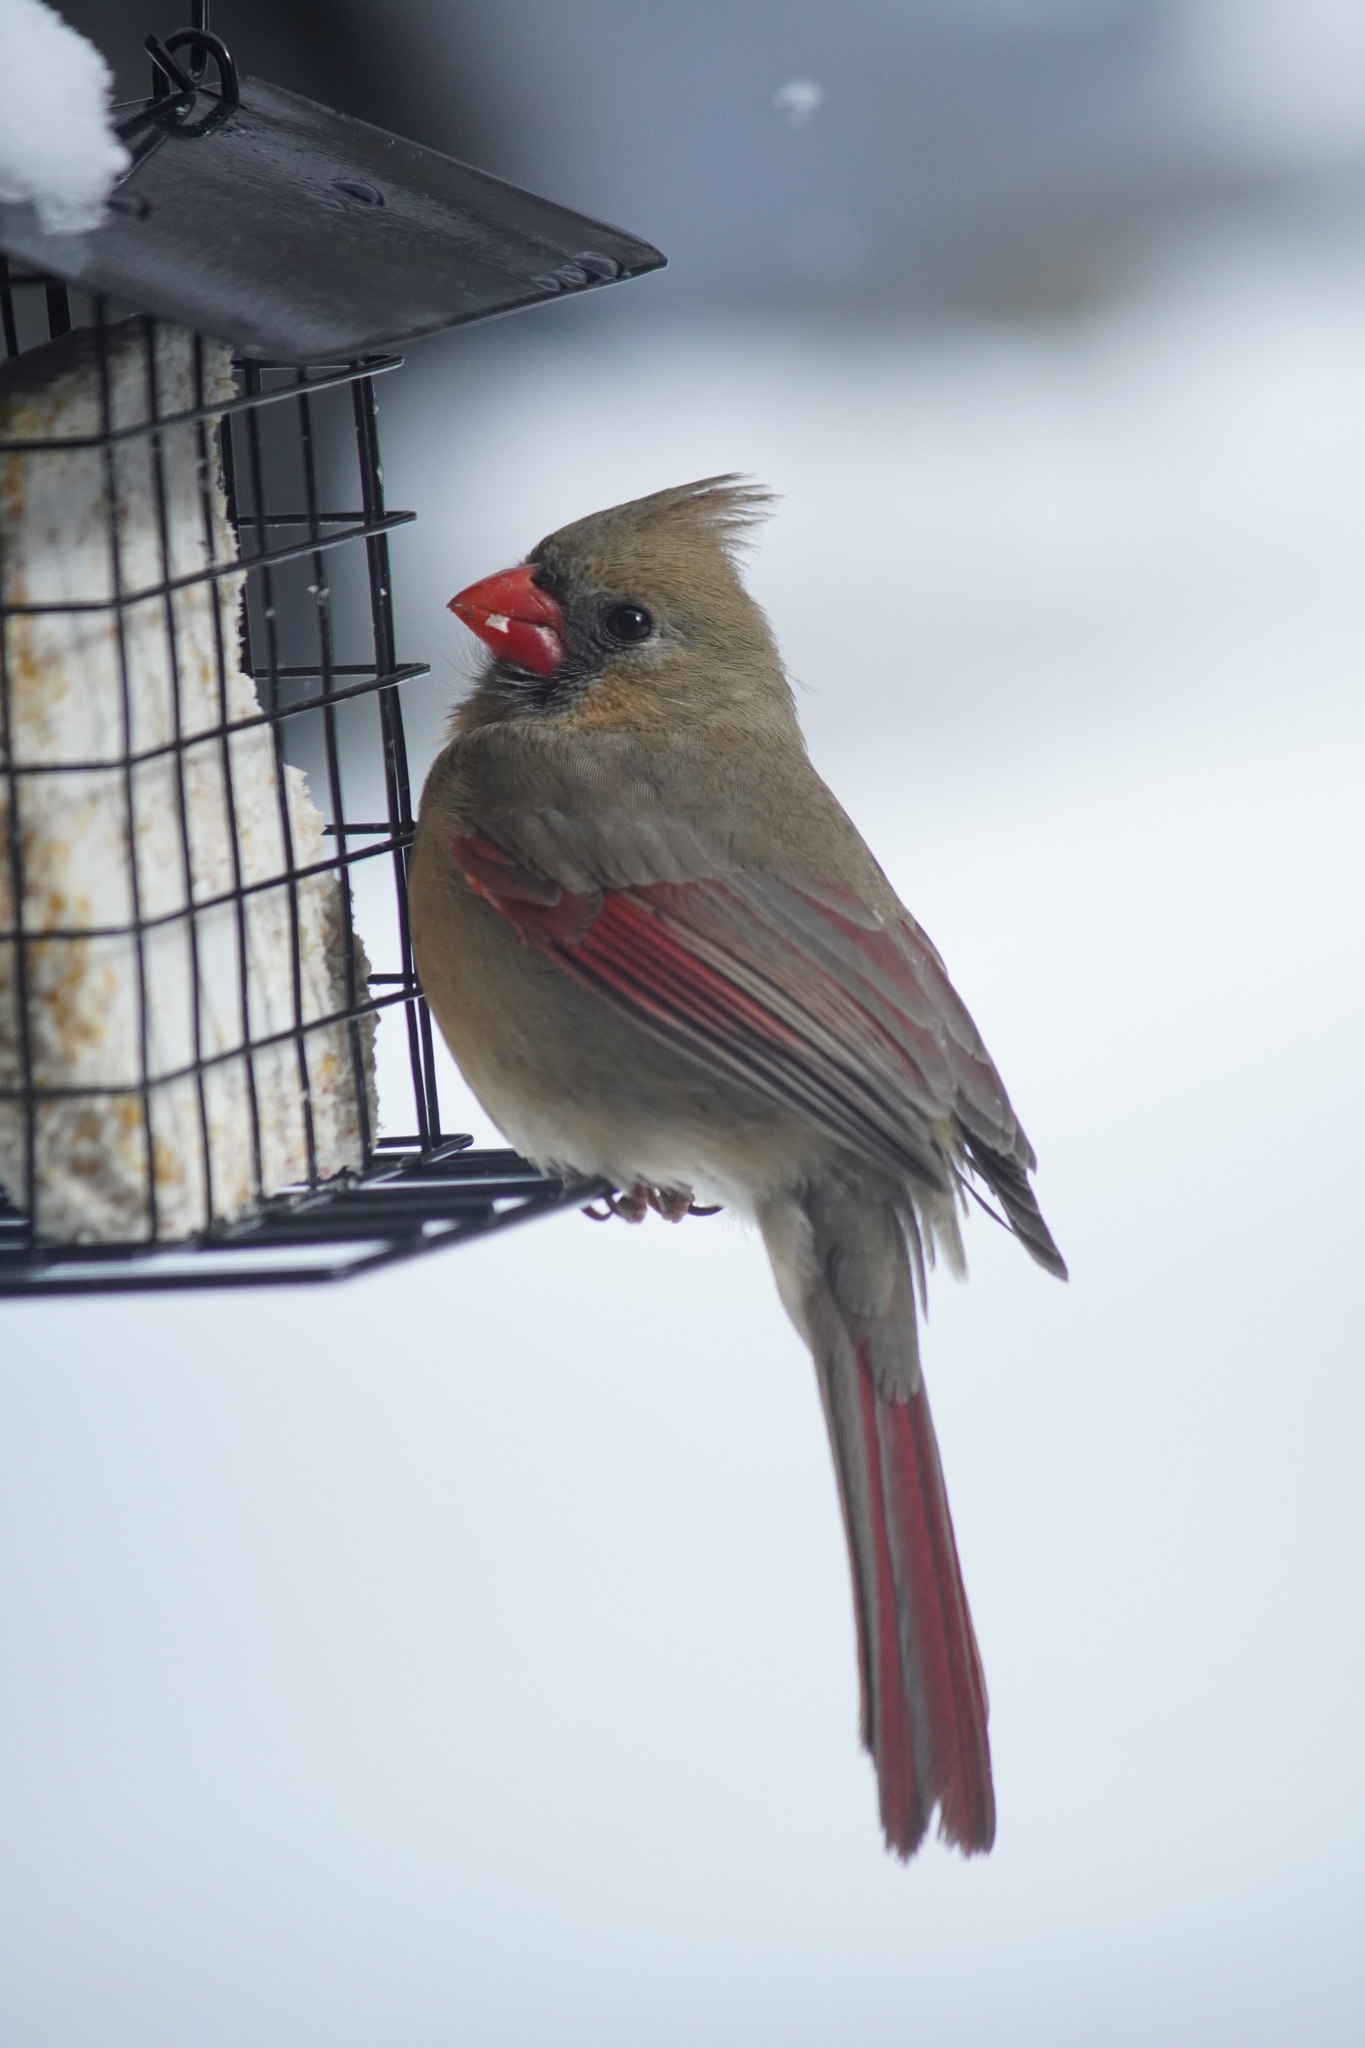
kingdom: Animalia
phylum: Chordata
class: Aves
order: Passeriformes
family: Cardinalidae
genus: Cardinalis
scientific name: Cardinalis cardinalis
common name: Northern cardinal
